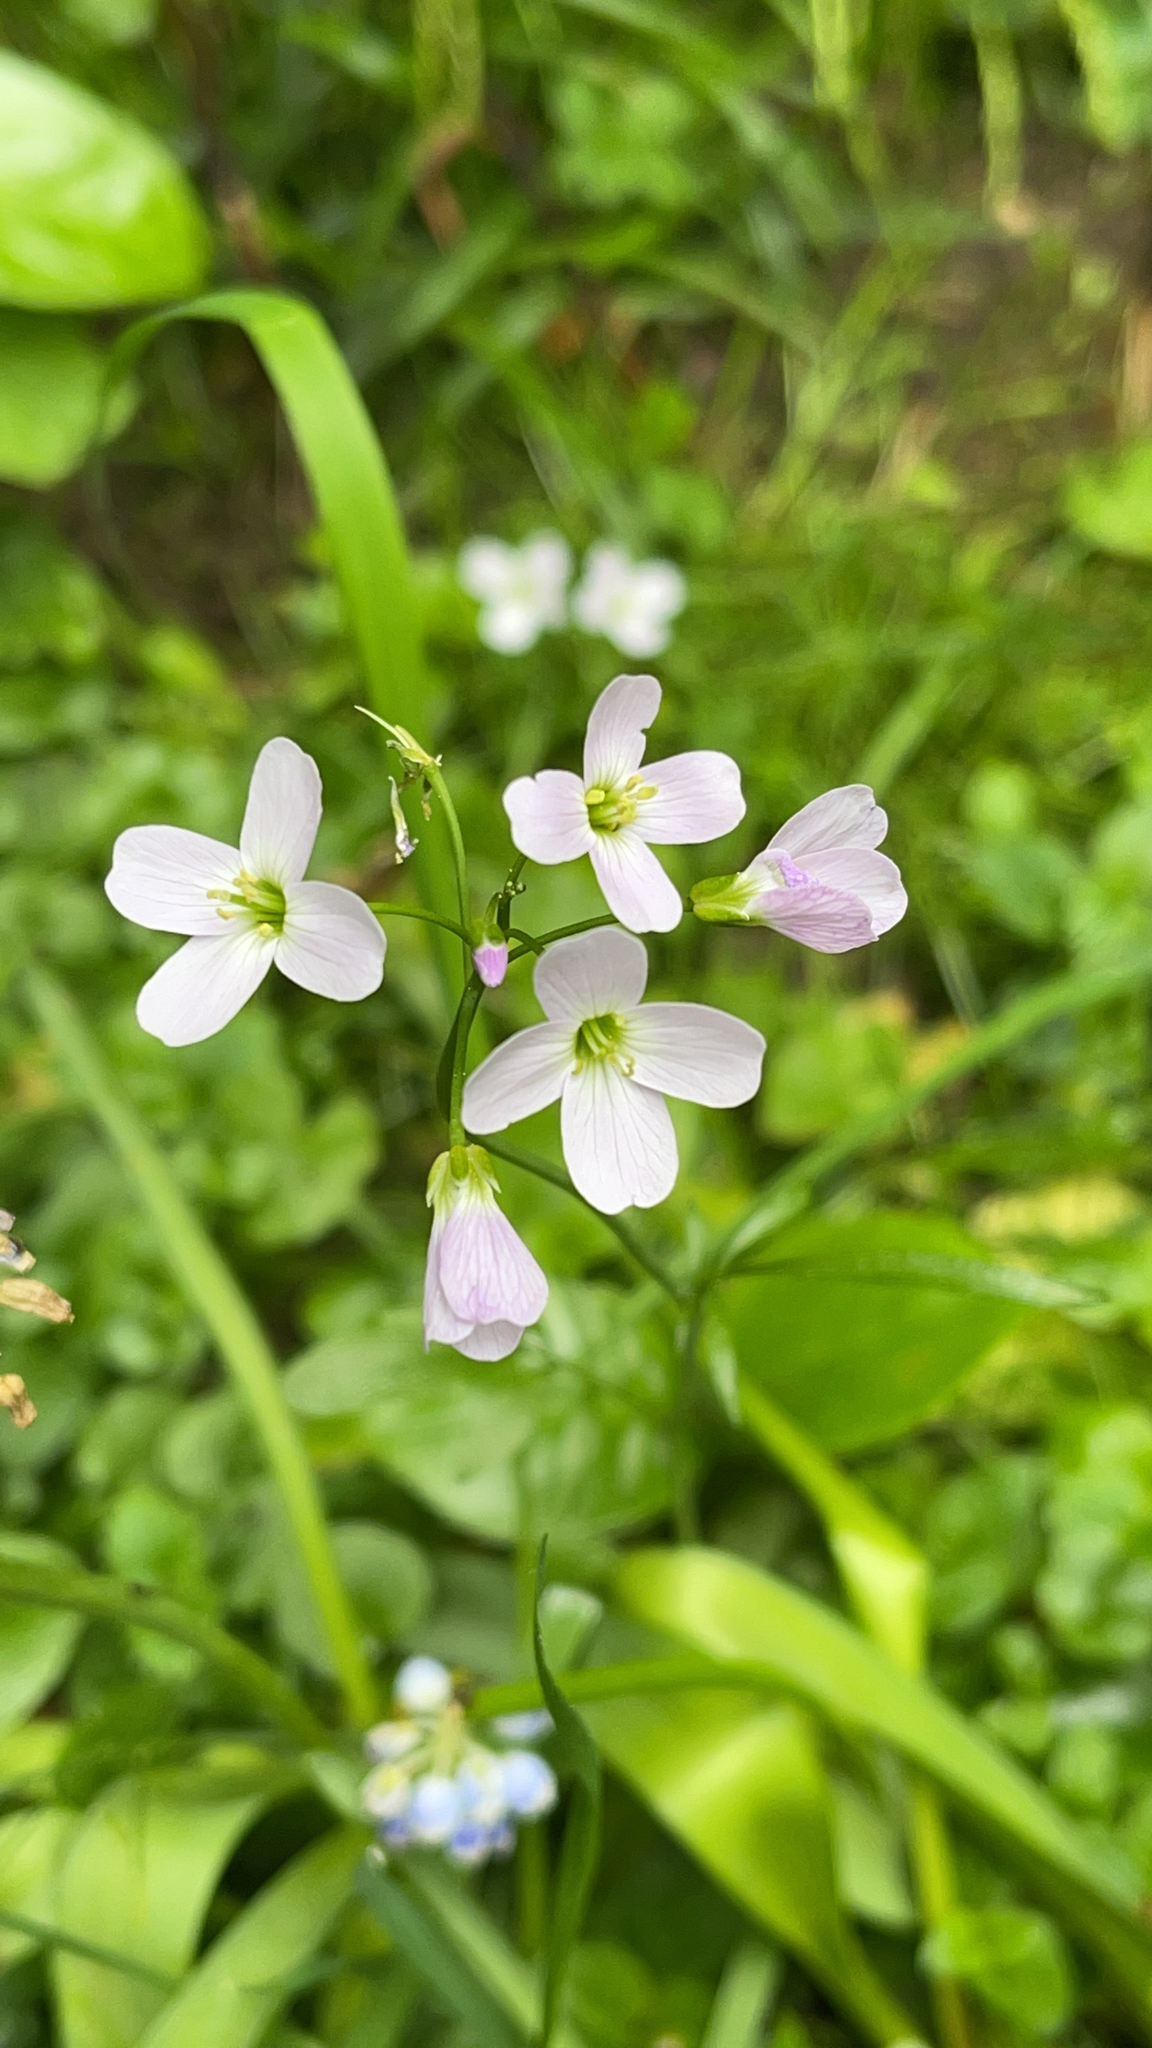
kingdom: Plantae
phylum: Tracheophyta
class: Magnoliopsida
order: Brassicales
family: Brassicaceae
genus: Cardamine
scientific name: Cardamine pratensis
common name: Cuckoo flower
